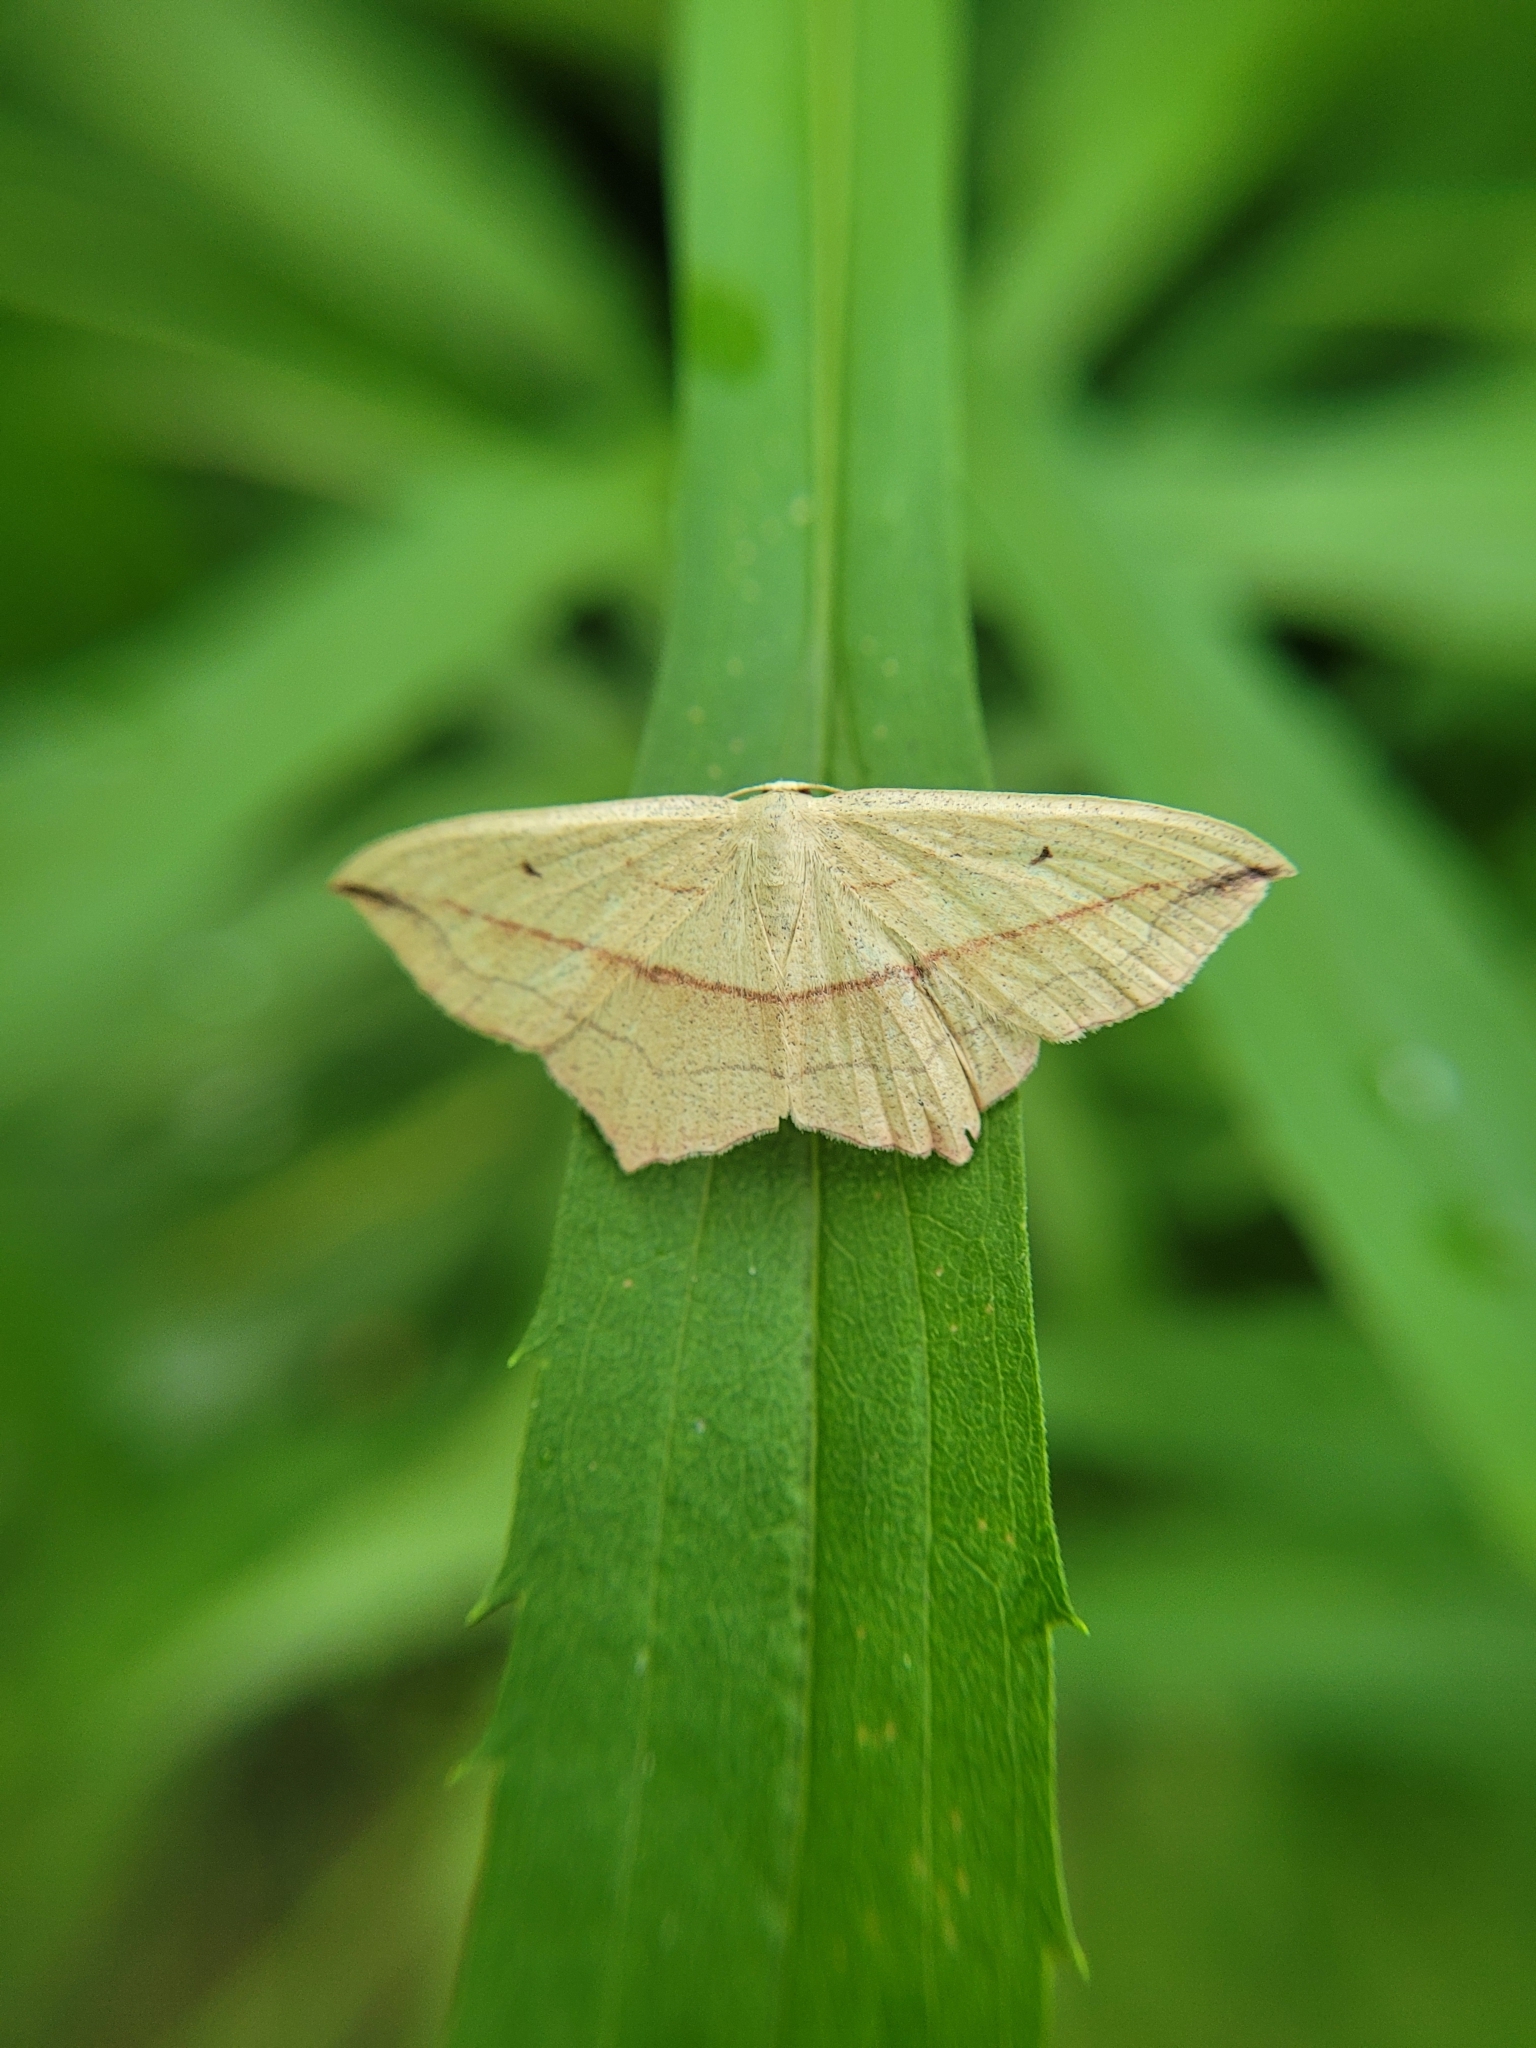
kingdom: Animalia
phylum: Arthropoda
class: Insecta
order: Lepidoptera
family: Geometridae
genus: Timandra
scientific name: Timandra comae
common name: Blood-vein
